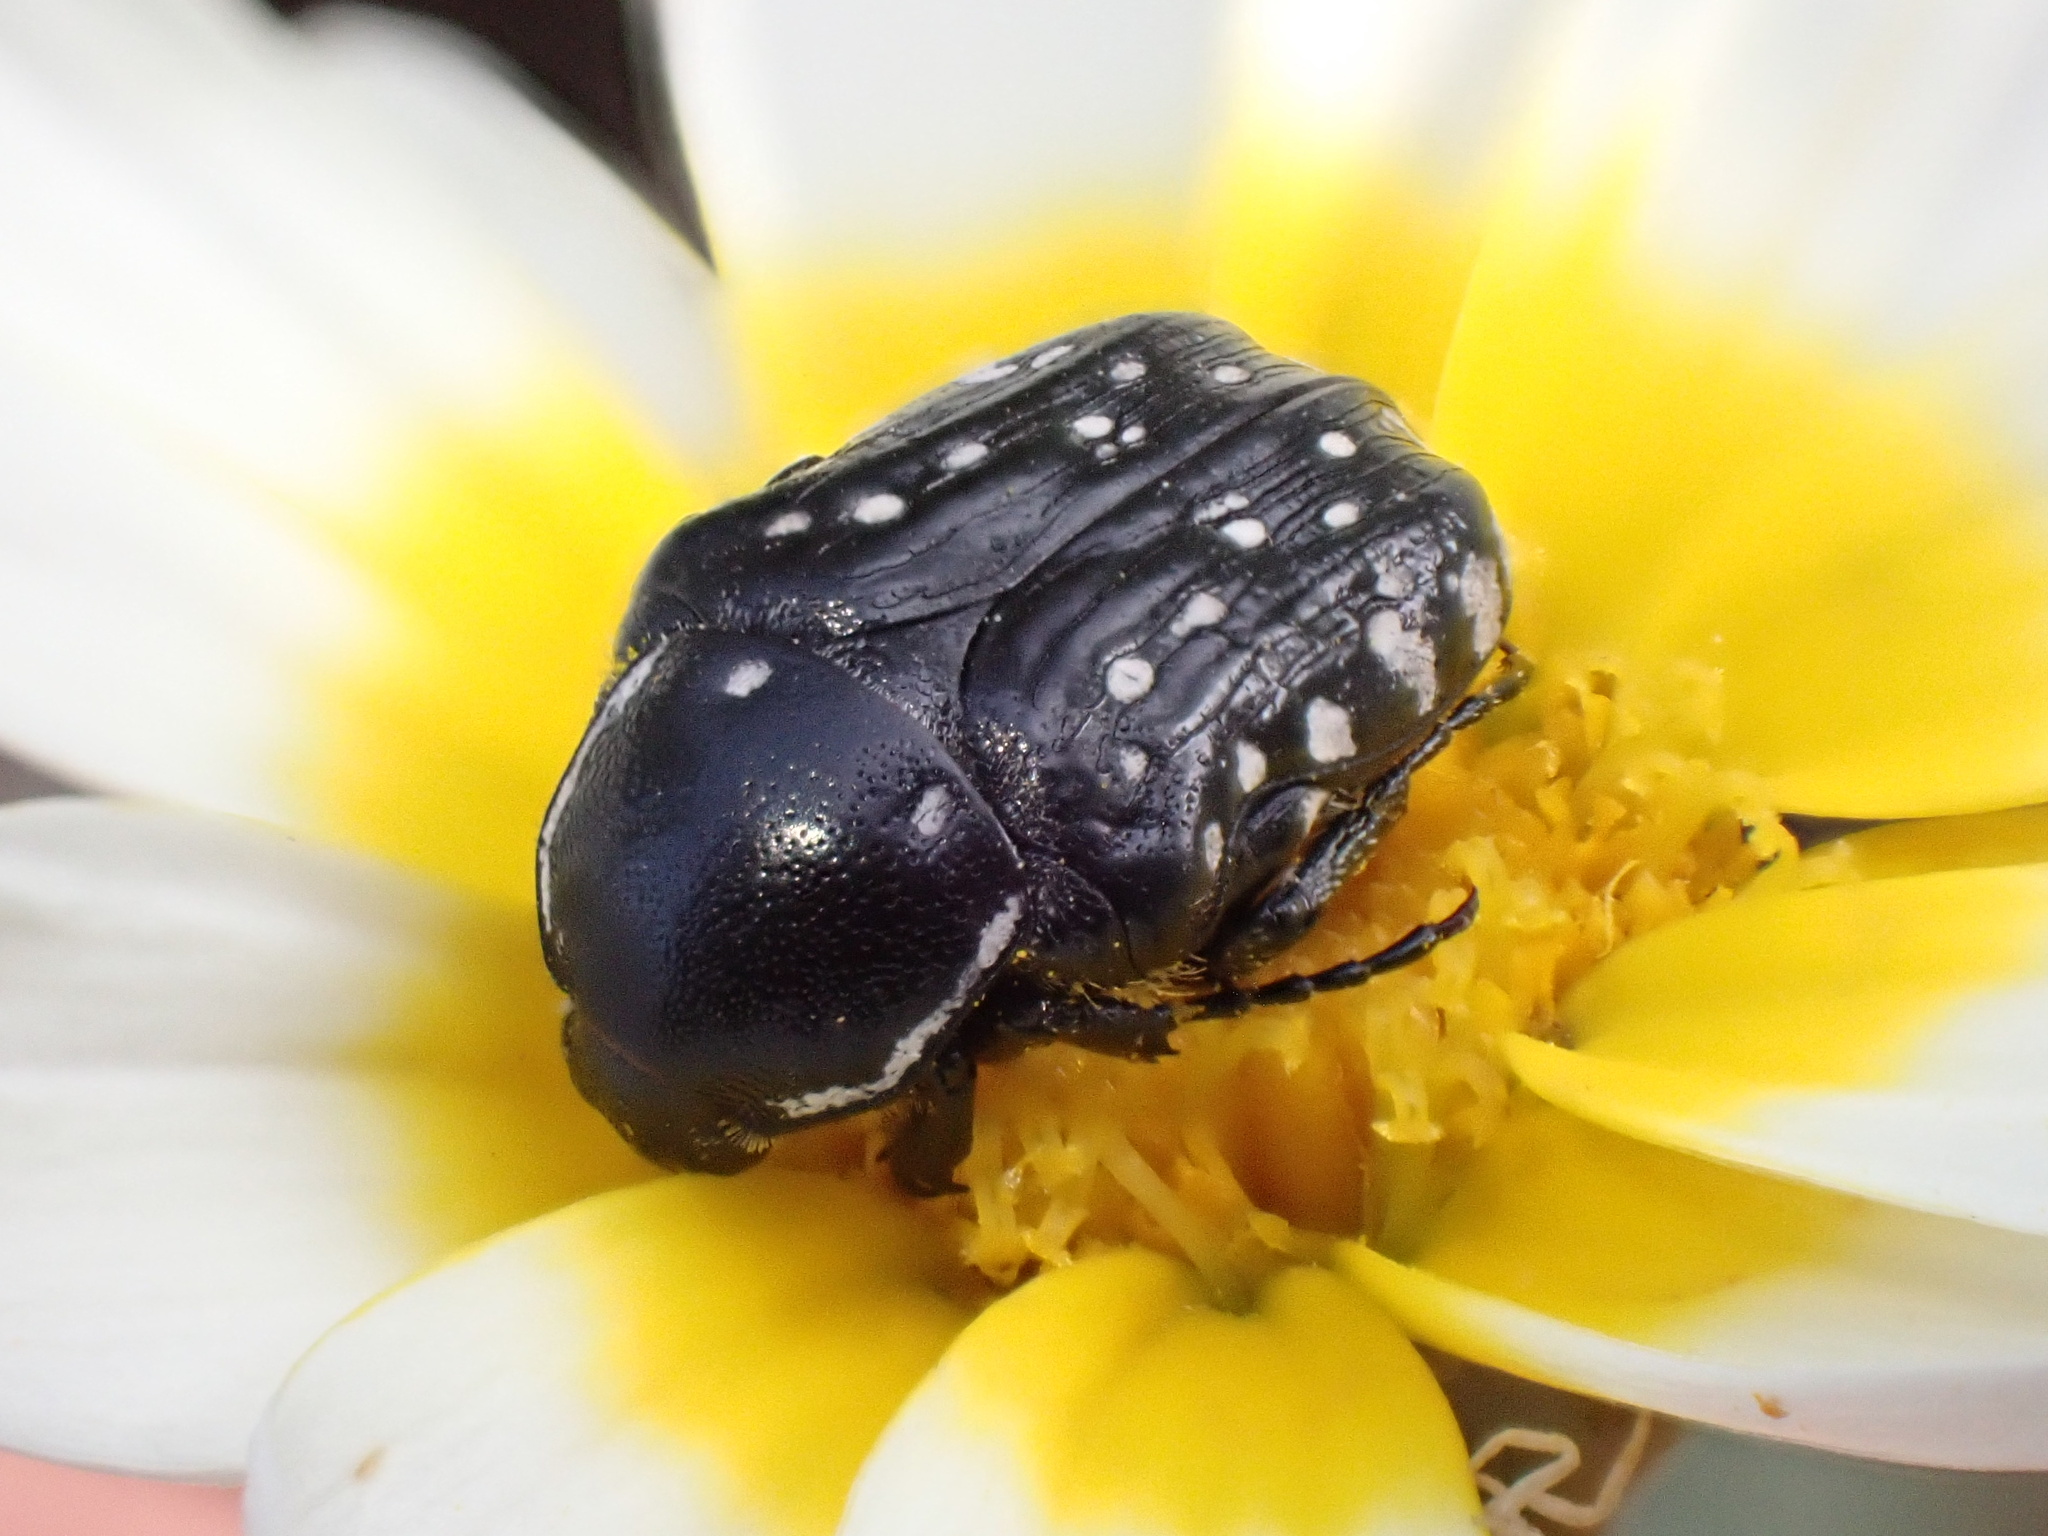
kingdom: Animalia
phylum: Arthropoda
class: Insecta
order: Coleoptera
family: Scarabaeidae
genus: Oxythyrea
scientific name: Oxythyrea cinctella
